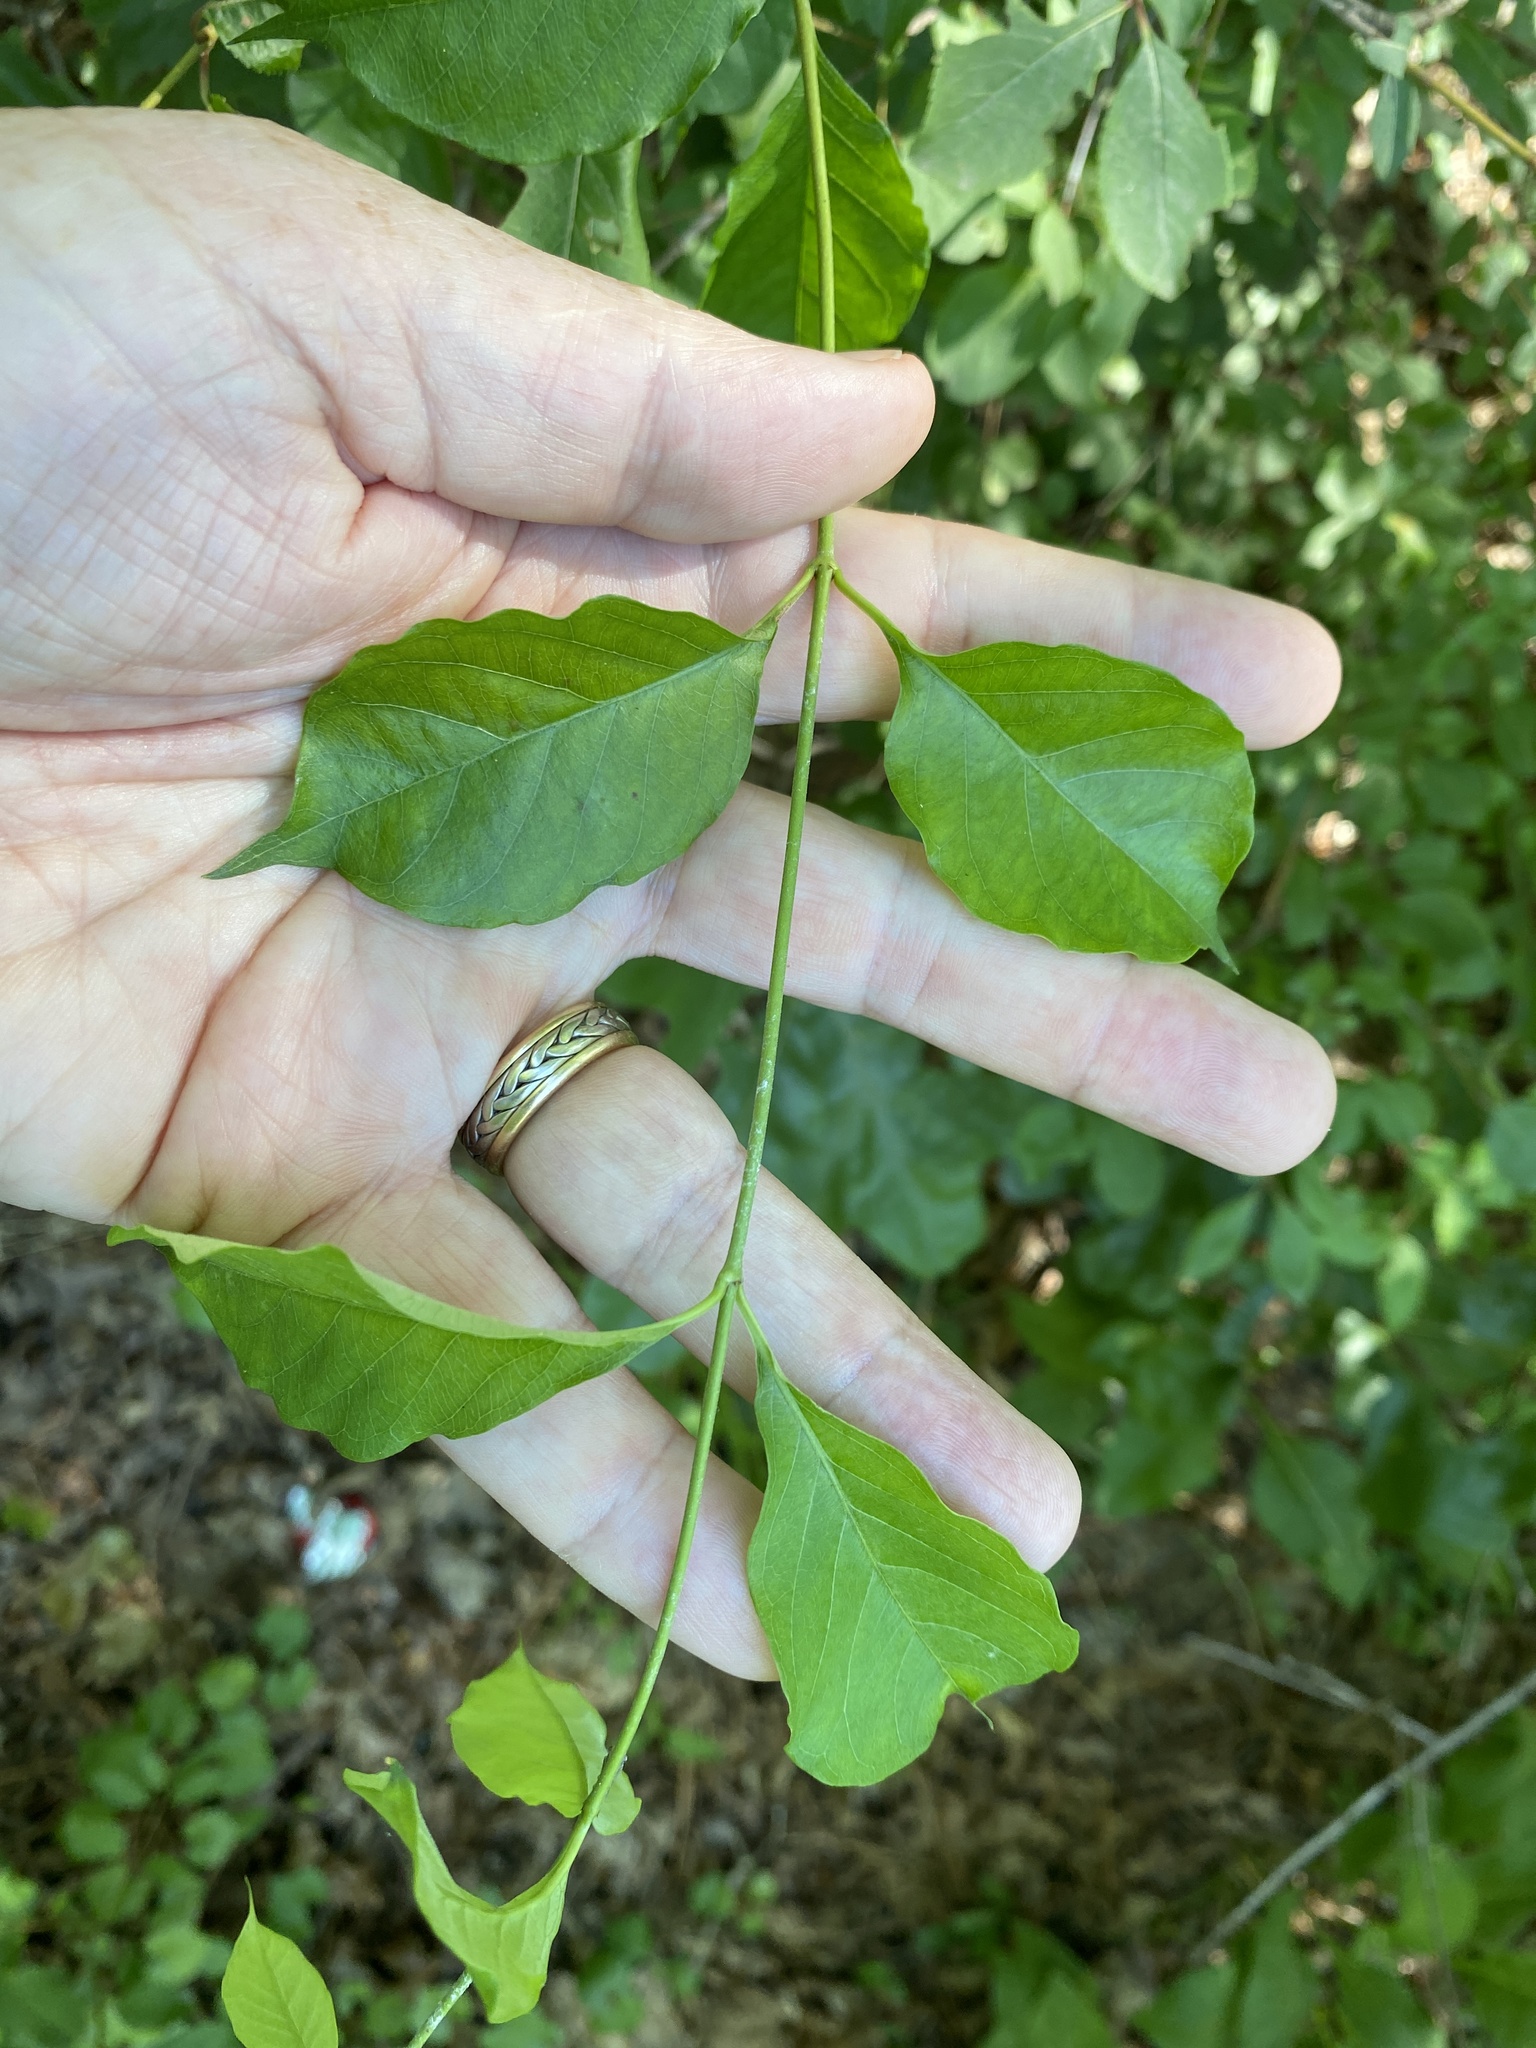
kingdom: Plantae
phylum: Tracheophyta
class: Magnoliopsida
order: Gentianales
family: Apocynaceae
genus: Thyrsanthella
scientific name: Thyrsanthella difformis
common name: Climbing dogbane
